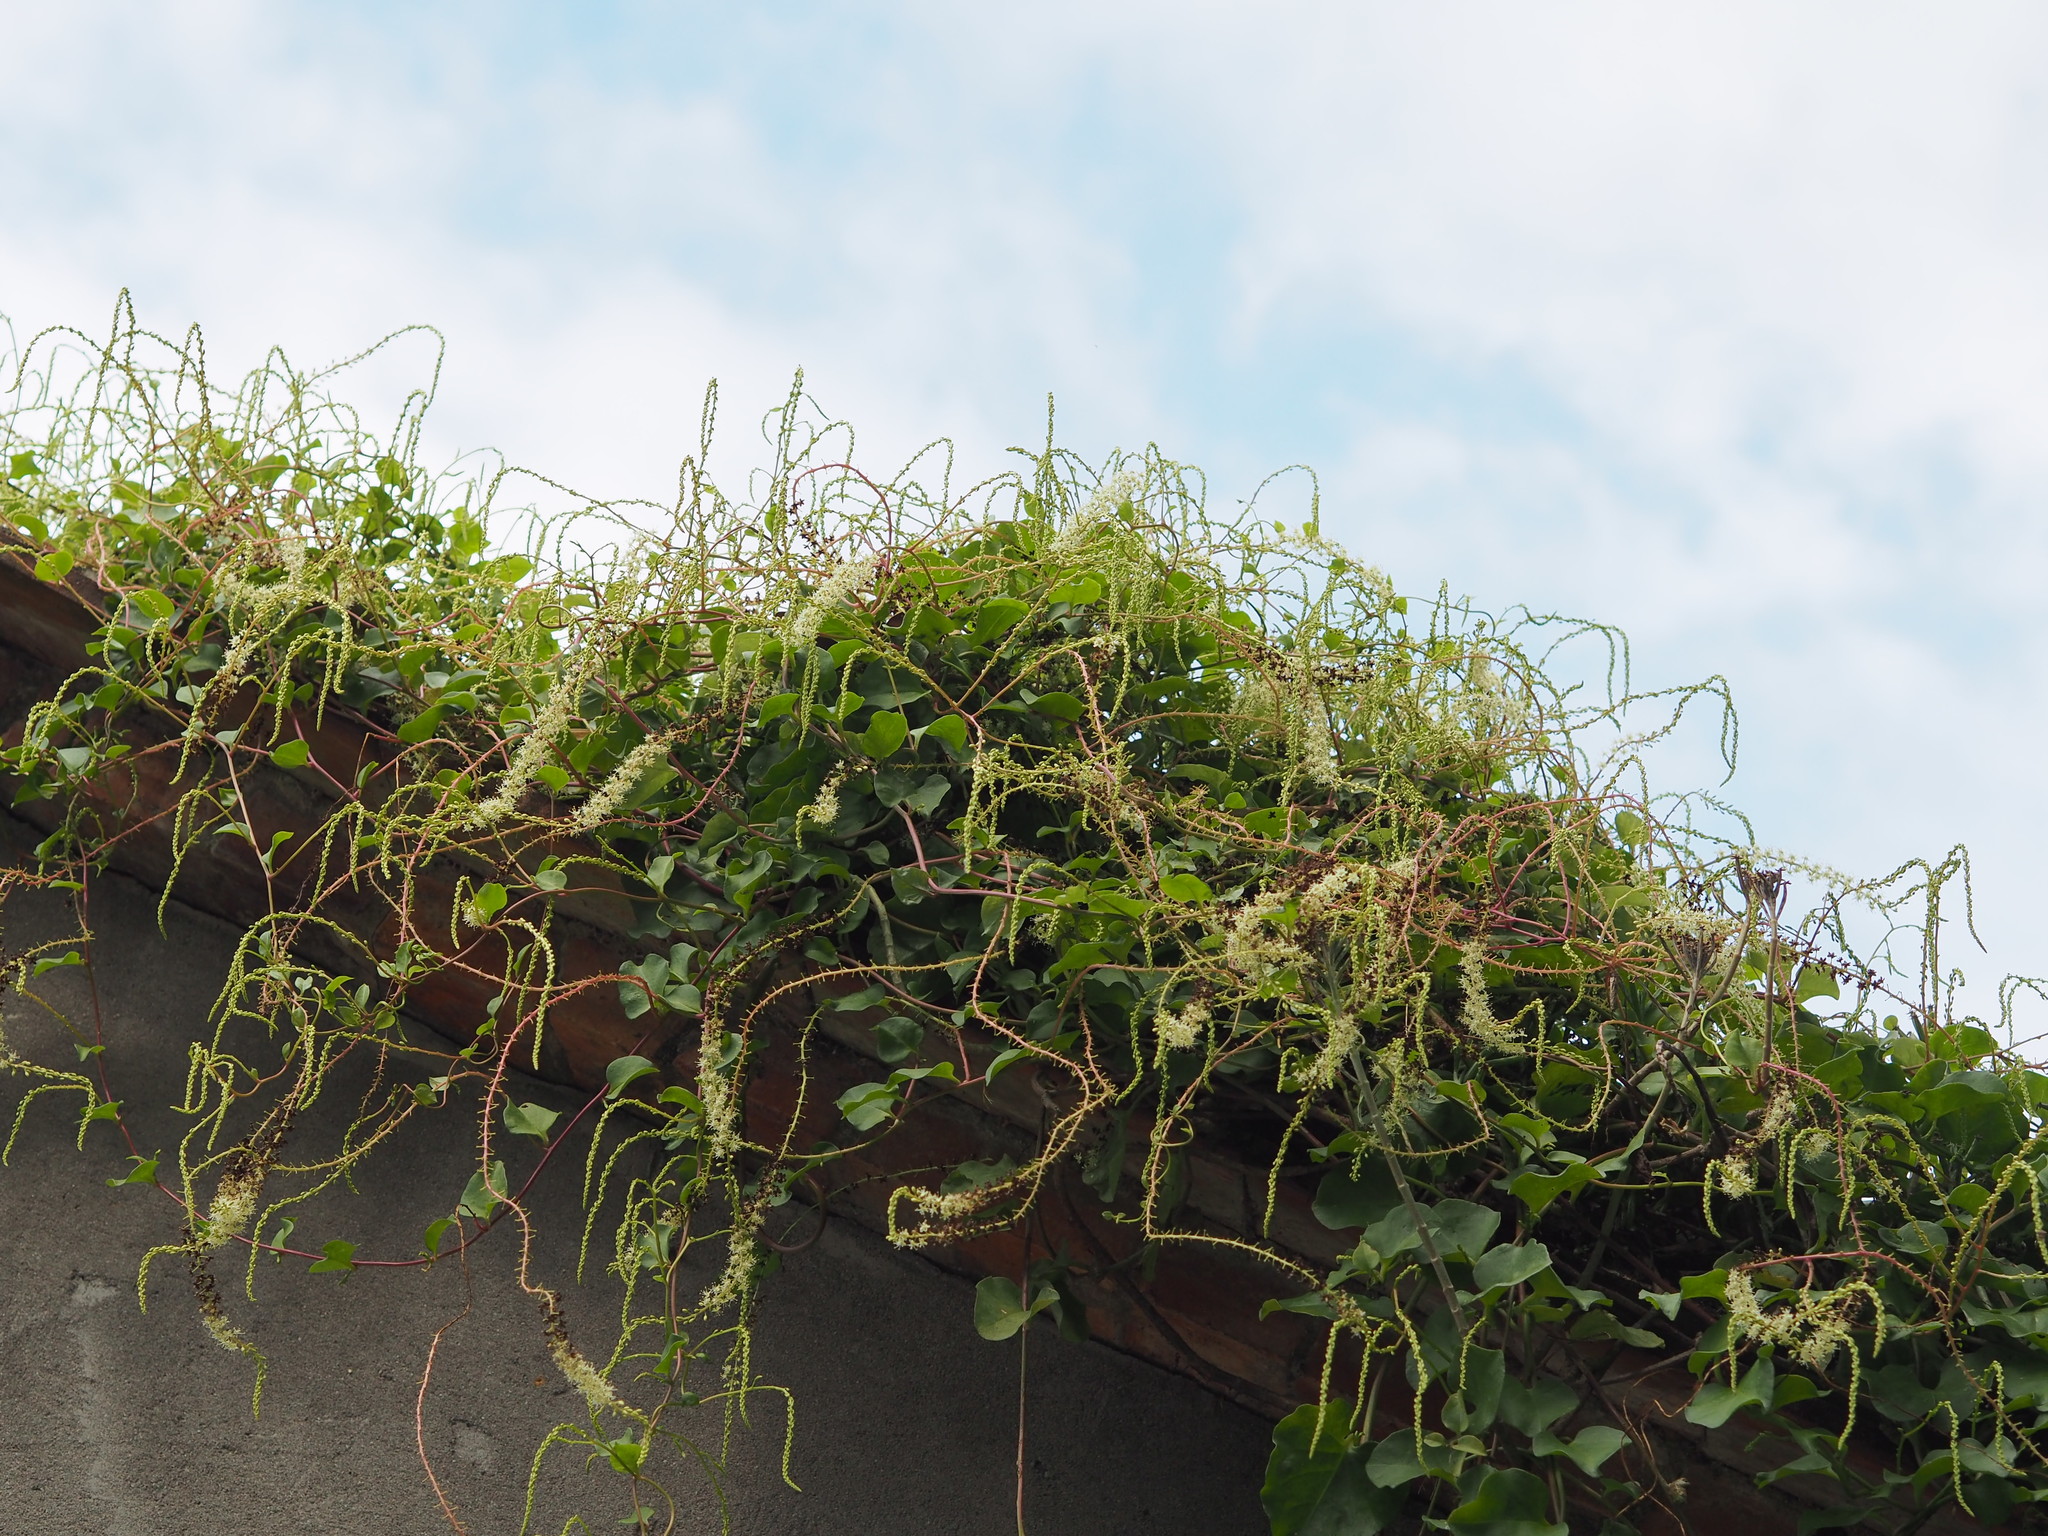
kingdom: Plantae
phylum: Tracheophyta
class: Magnoliopsida
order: Caryophyllales
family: Basellaceae
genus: Anredera
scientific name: Anredera cordifolia
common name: Heartleaf madeiravine
